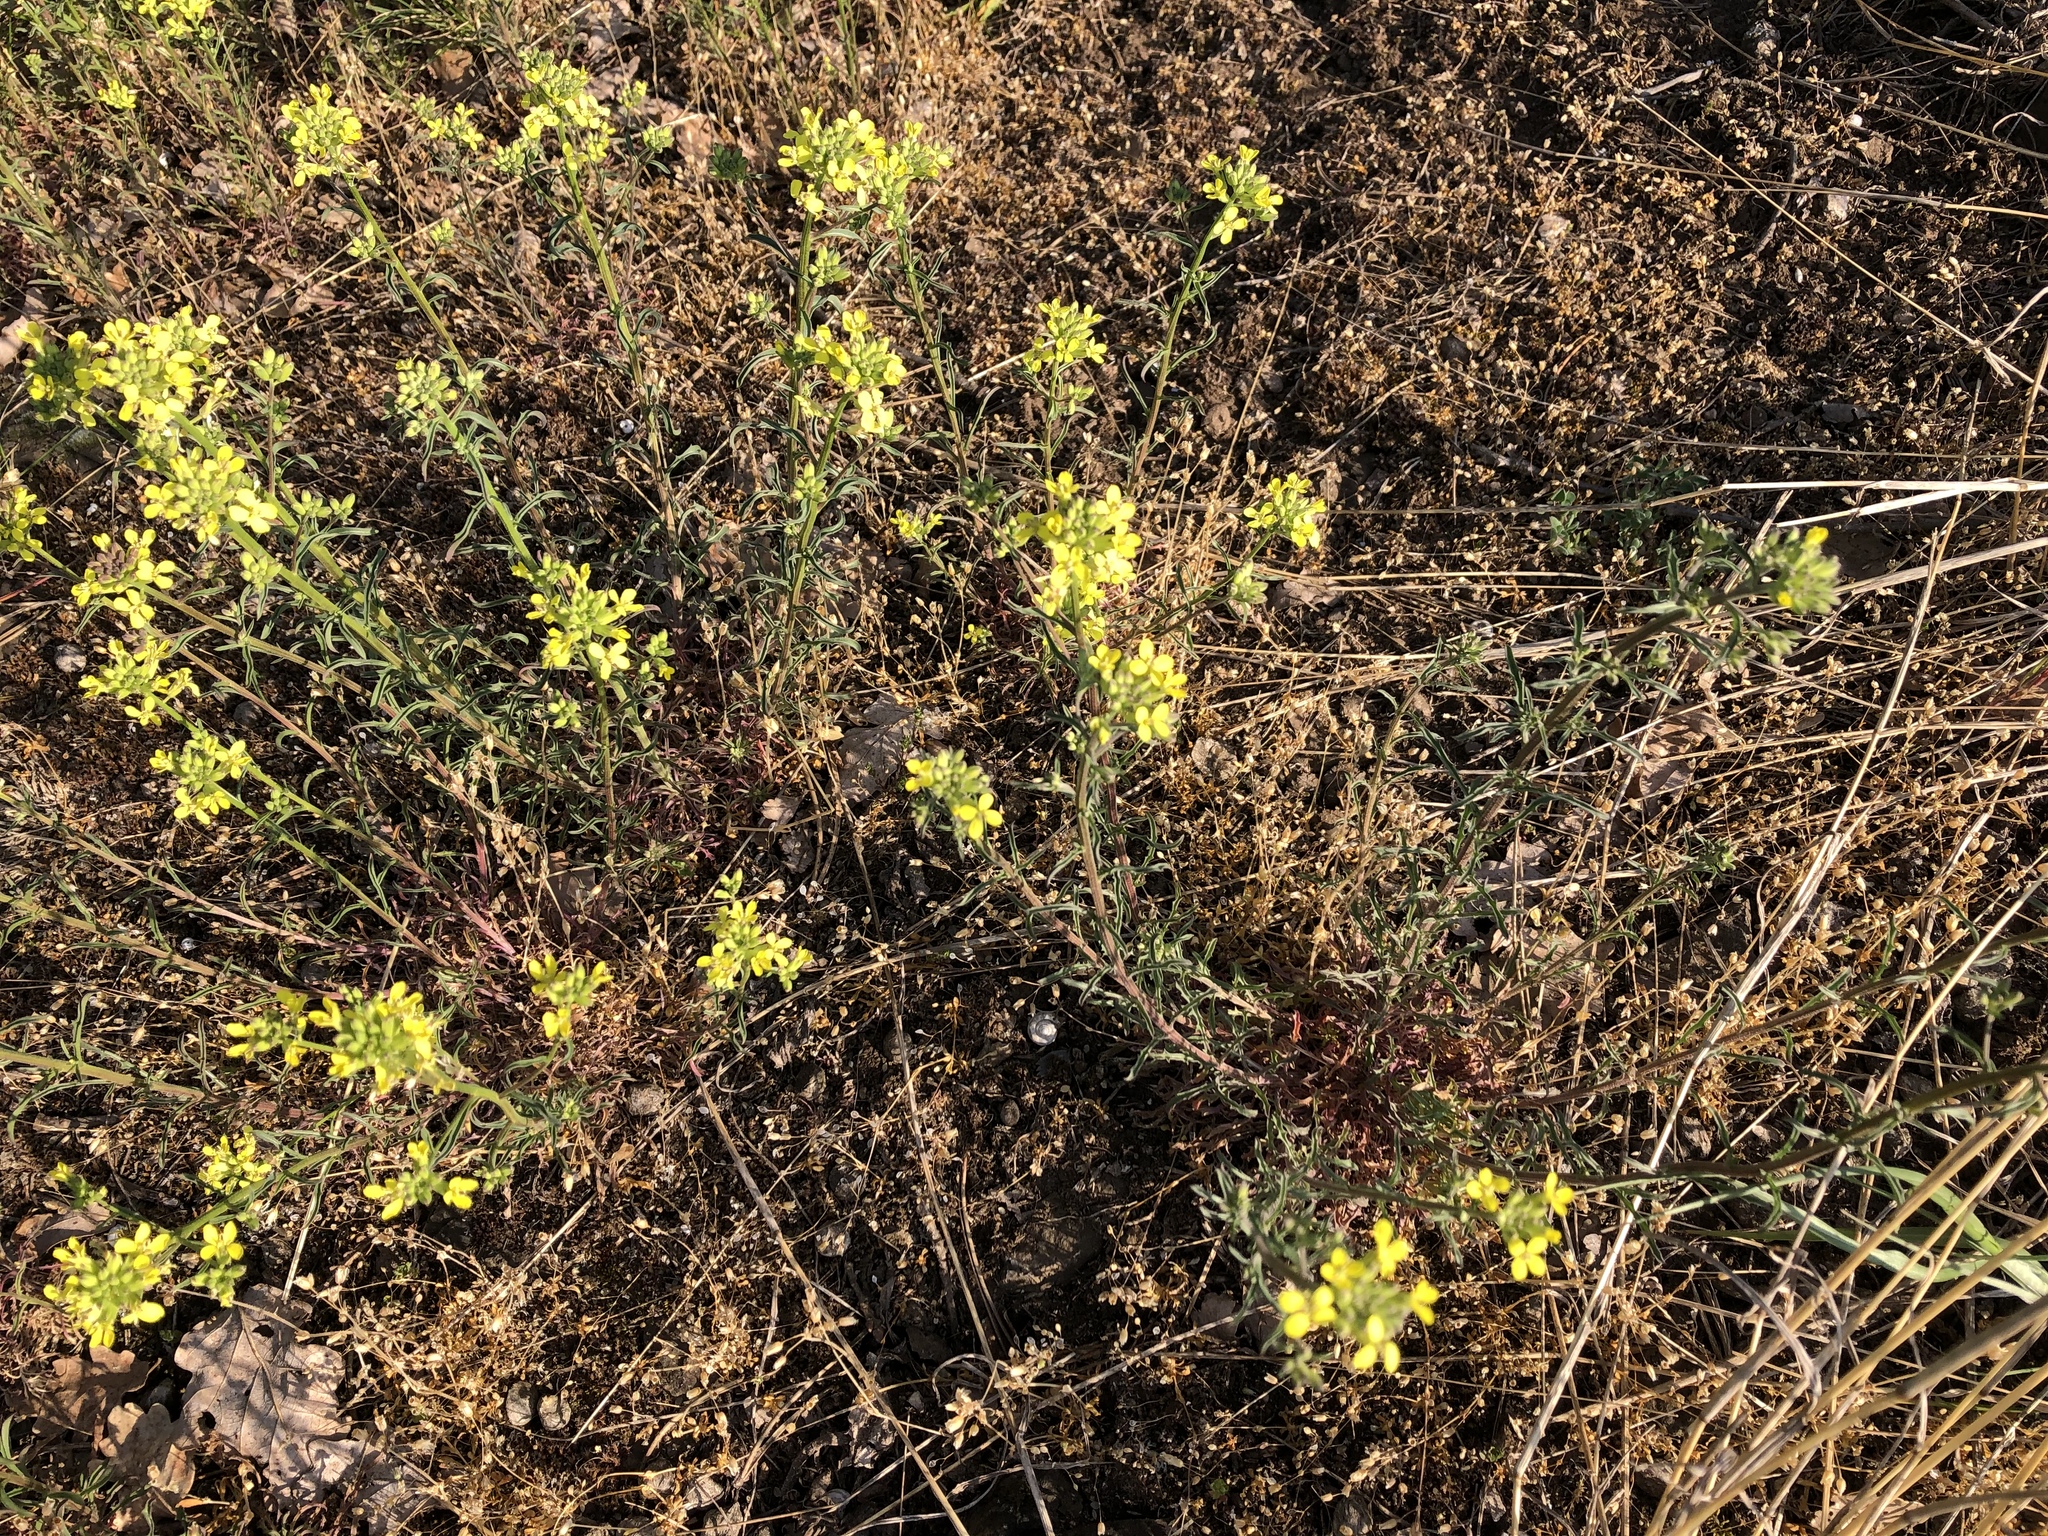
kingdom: Plantae
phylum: Tracheophyta
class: Magnoliopsida
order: Brassicales
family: Brassicaceae
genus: Erysimum
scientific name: Erysimum crepidifolium
